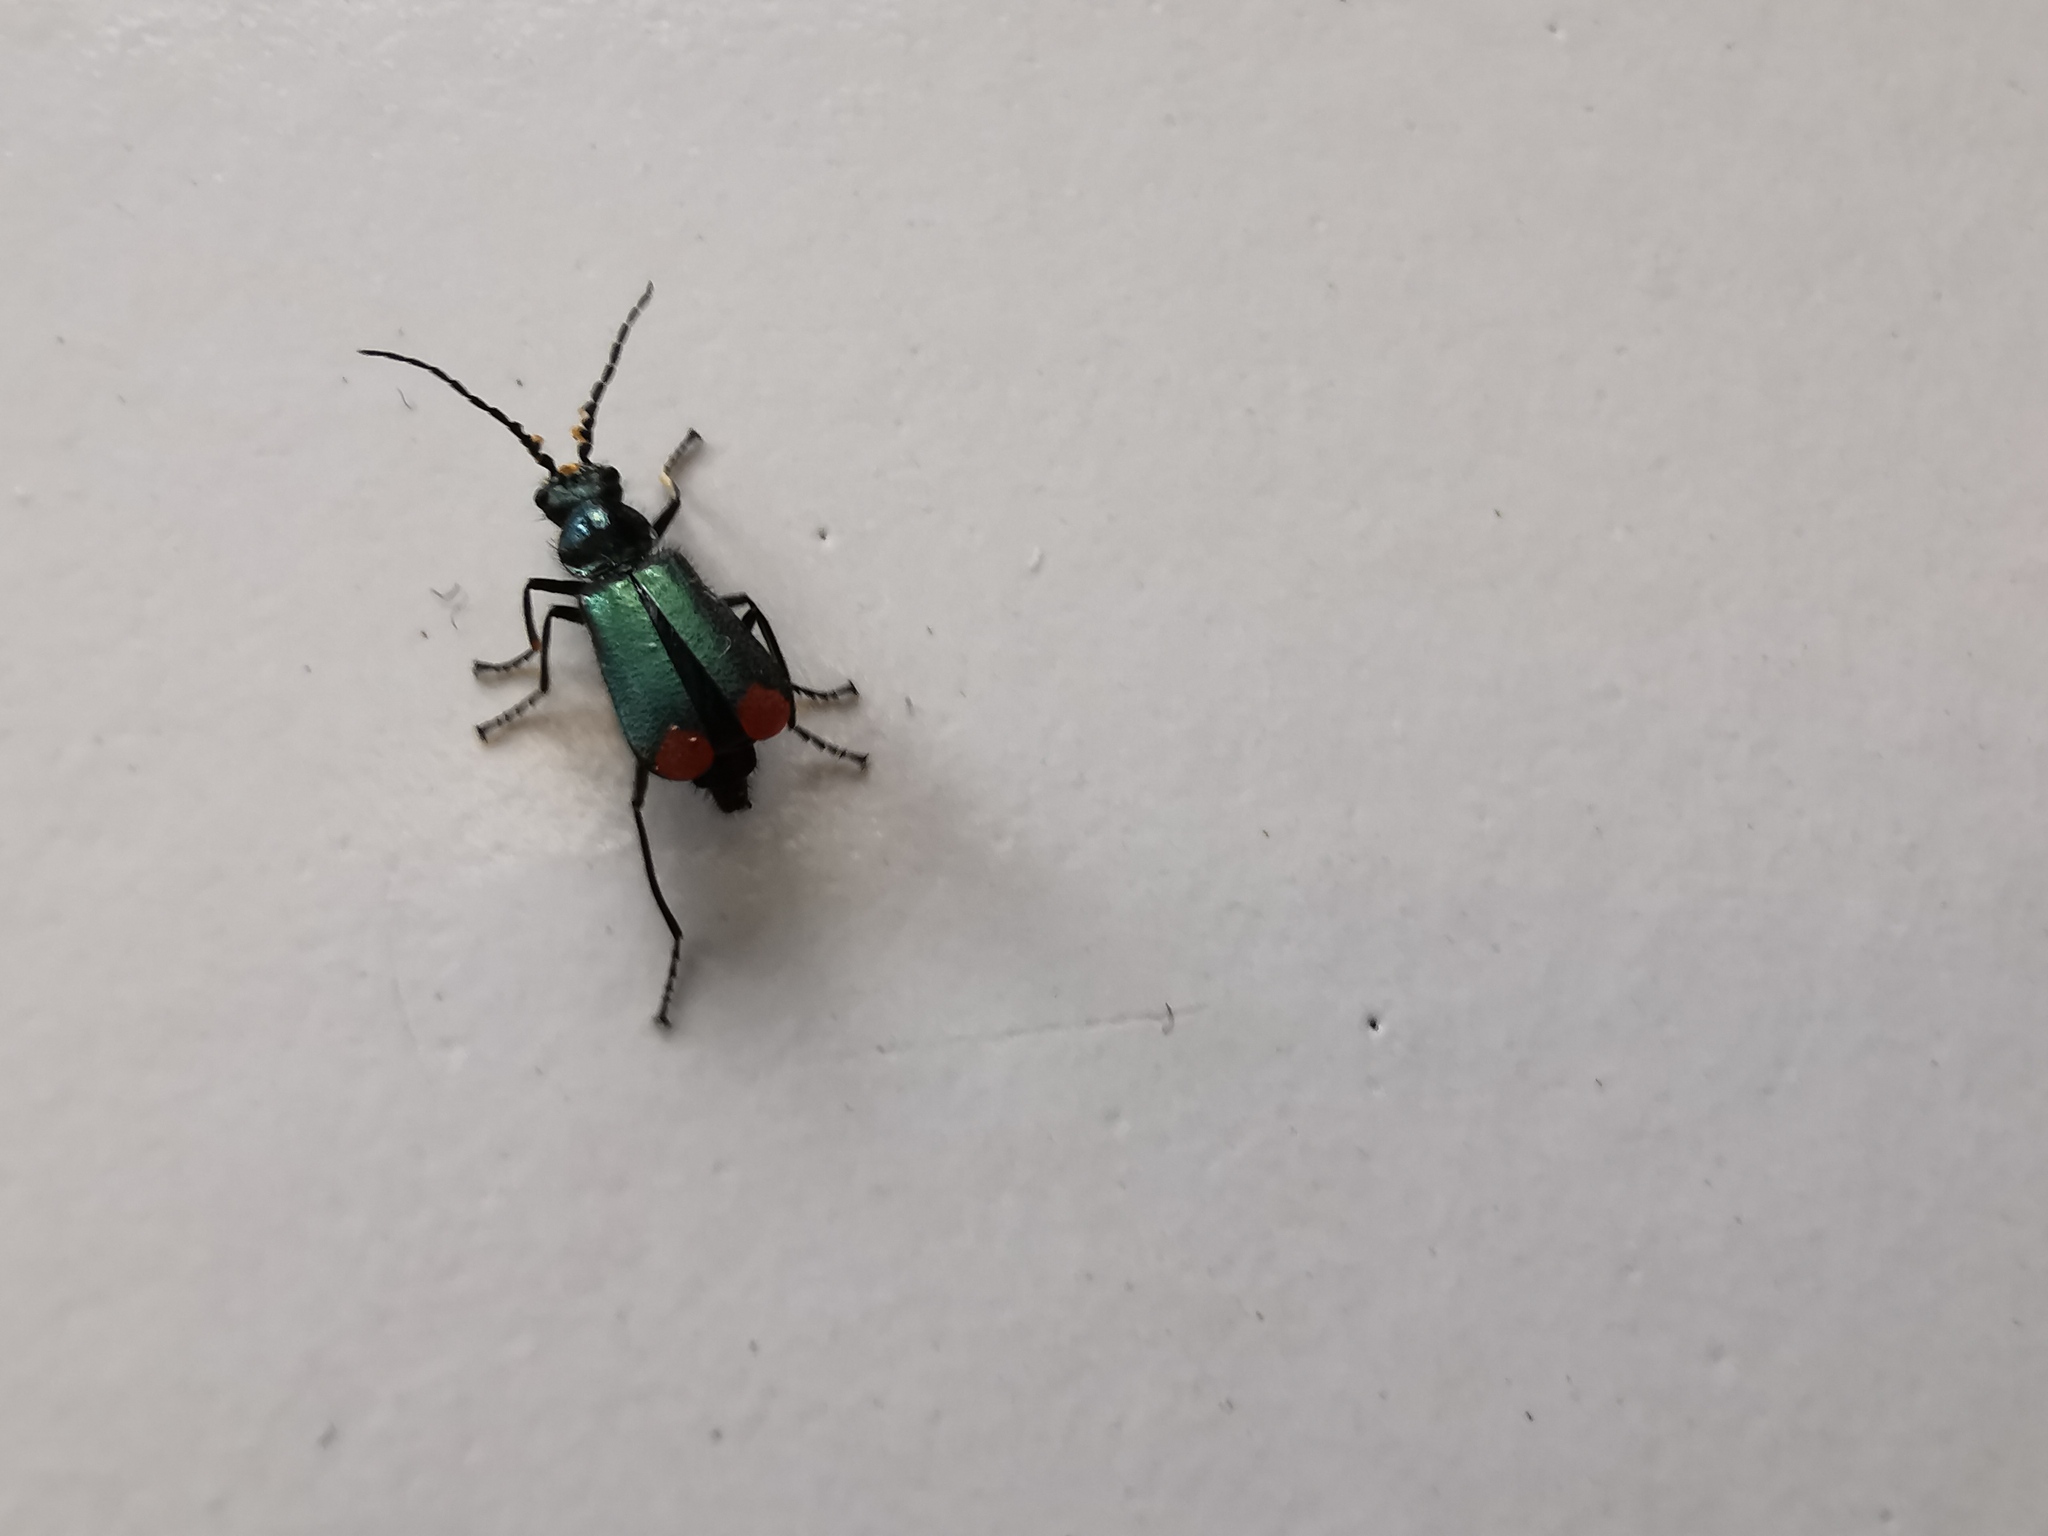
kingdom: Animalia
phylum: Arthropoda
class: Insecta
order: Coleoptera
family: Melyridae
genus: Malachius
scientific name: Malachius bipustulatus
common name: Malachite beetle
